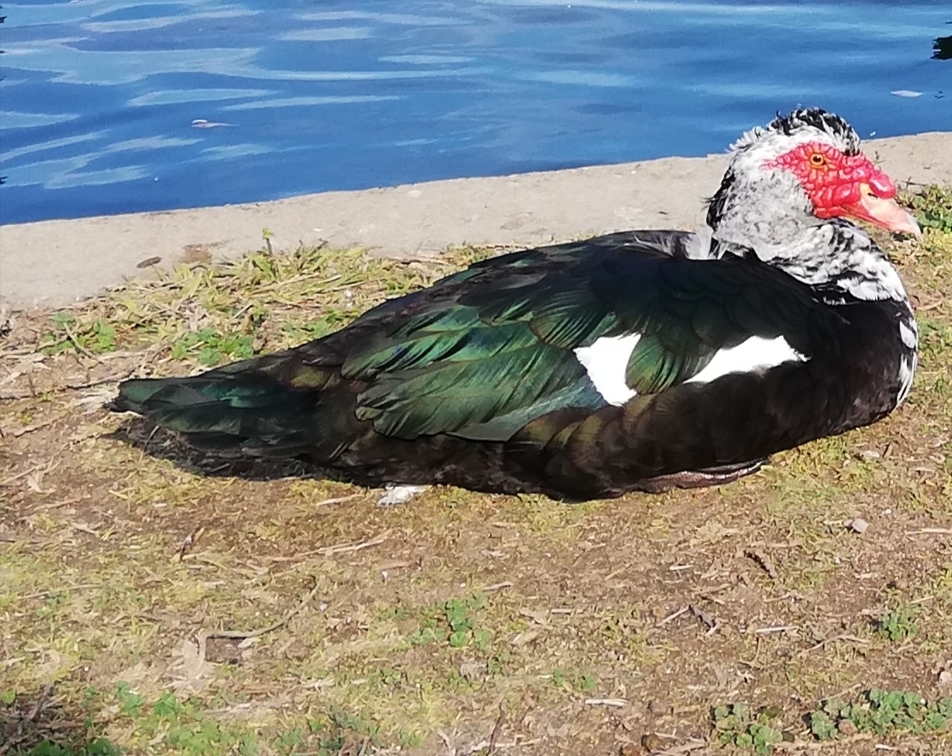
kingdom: Animalia
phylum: Chordata
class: Aves
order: Anseriformes
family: Anatidae
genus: Cairina
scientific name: Cairina moschata
